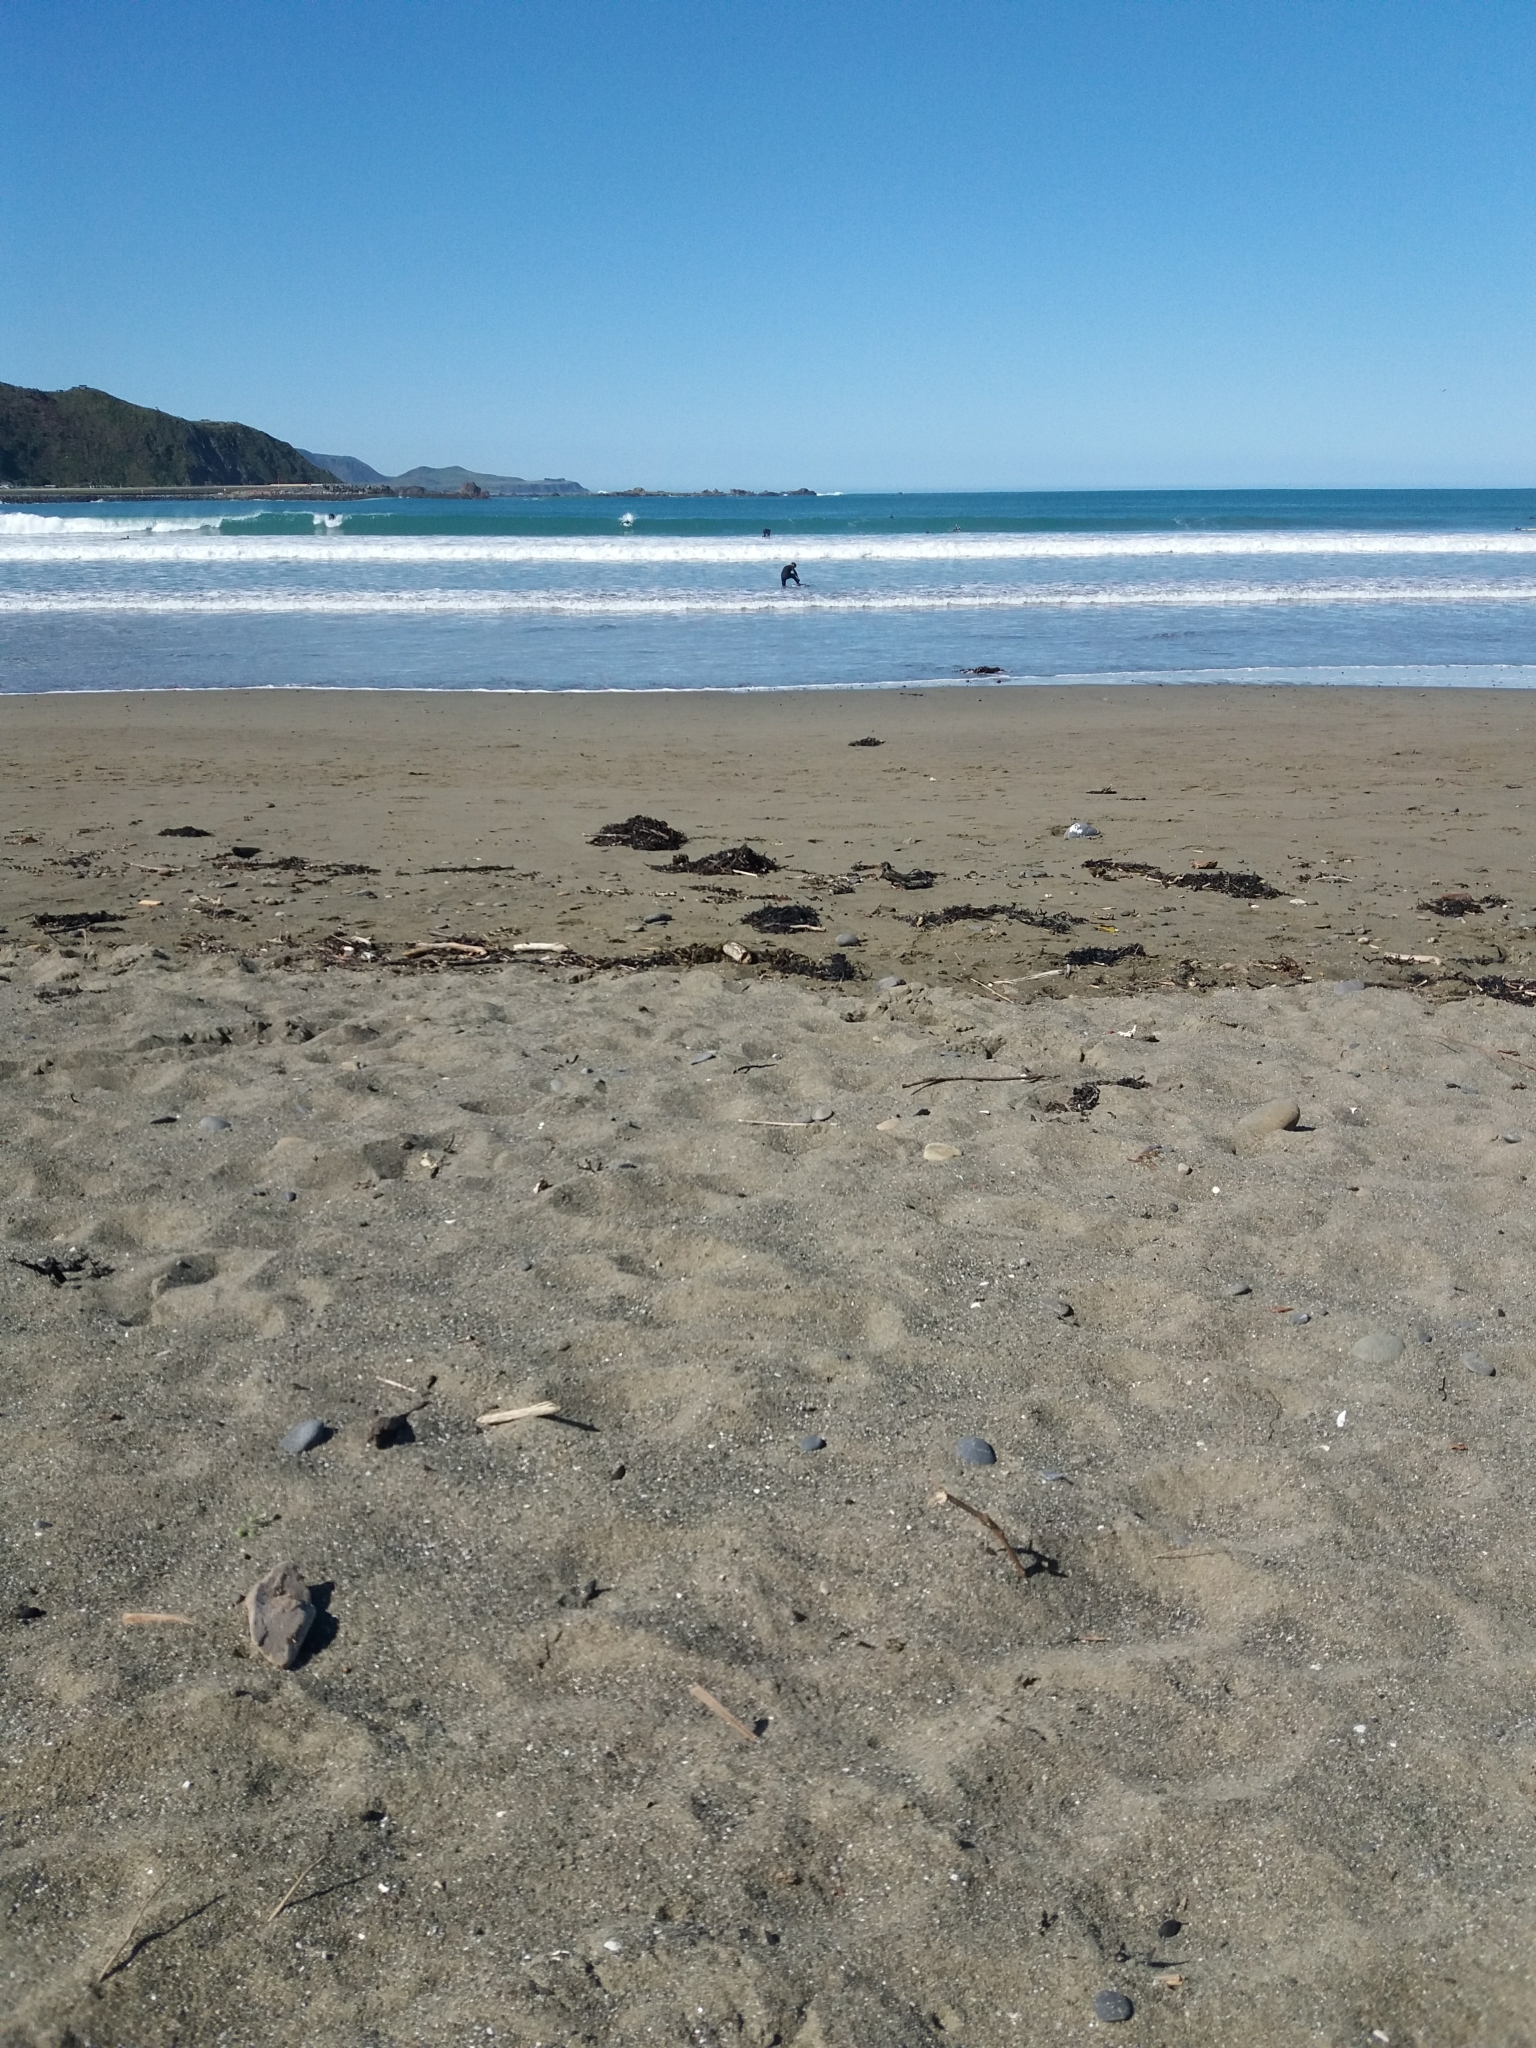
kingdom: Animalia
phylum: Chordata
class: Aves
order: Passeriformes
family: Sturnidae
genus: Sturnus
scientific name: Sturnus vulgaris
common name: Common starling
